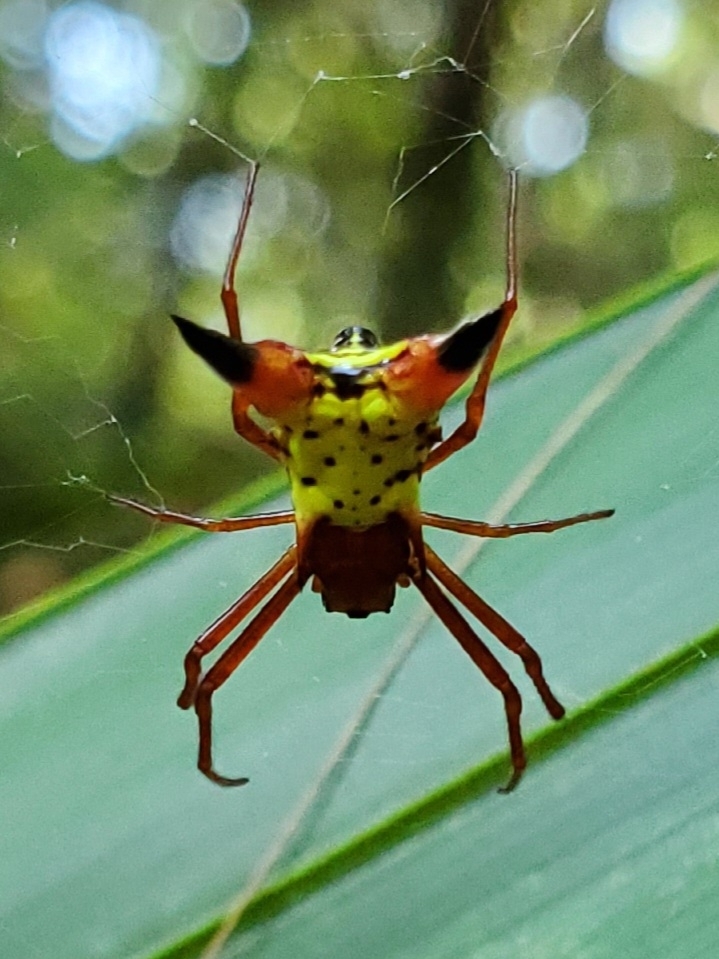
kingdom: Animalia
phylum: Arthropoda
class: Arachnida
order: Araneae
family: Araneidae
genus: Micrathena
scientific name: Micrathena sagittata
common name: Orb weavers
